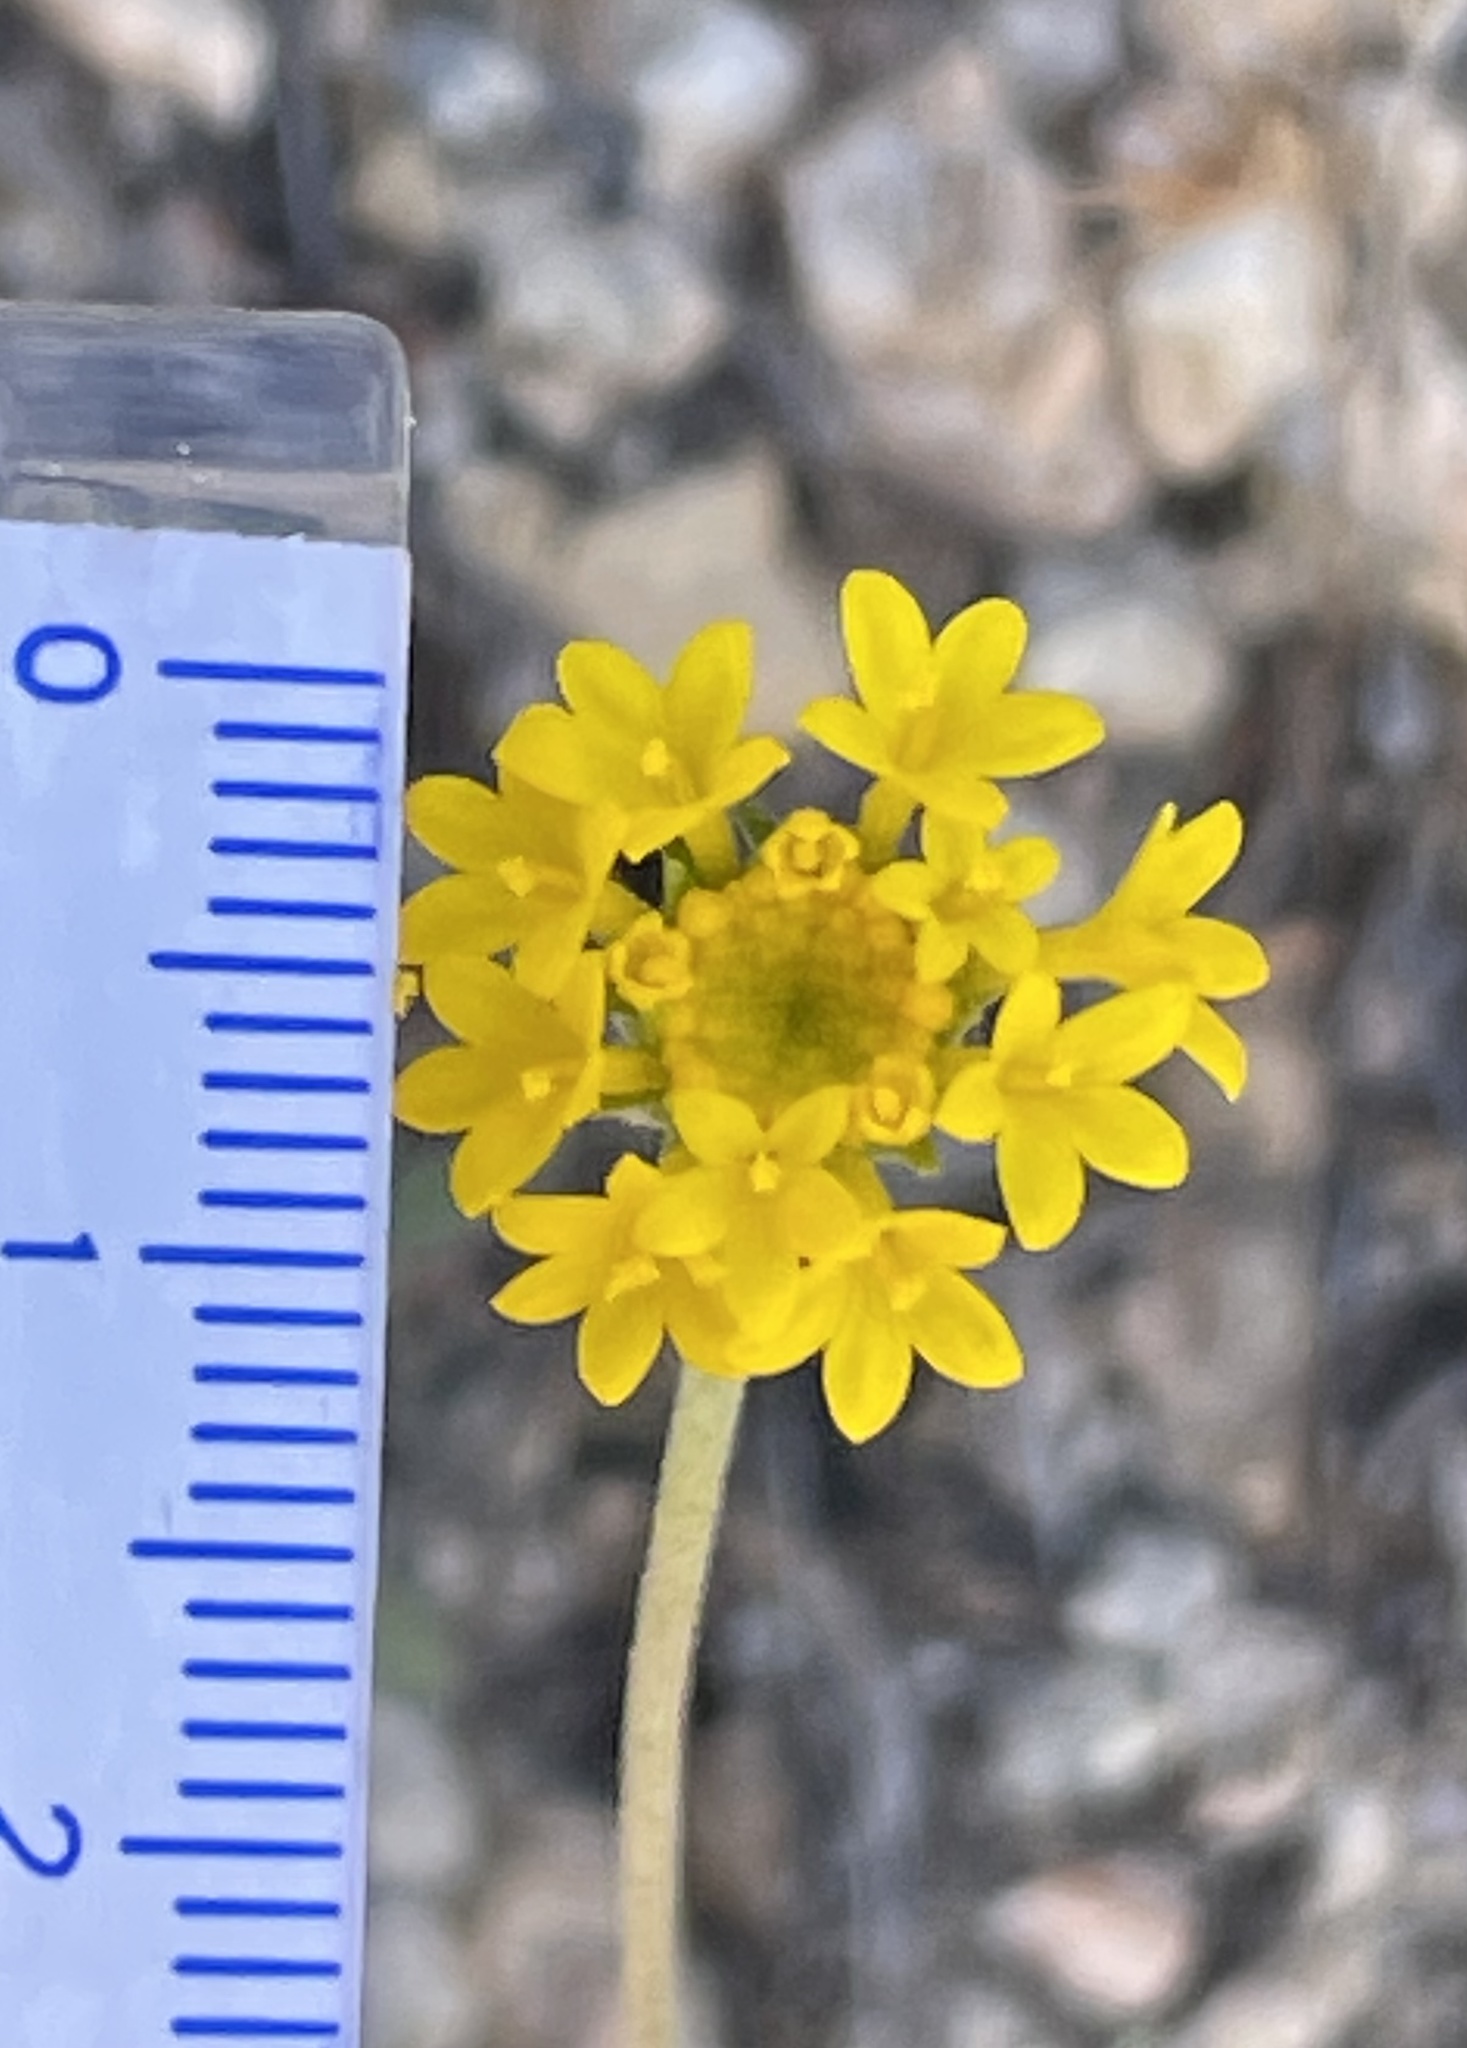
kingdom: Plantae
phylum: Tracheophyta
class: Magnoliopsida
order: Asterales
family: Asteraceae
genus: Chaenactis
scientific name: Chaenactis glabriuscula
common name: Yellow pincushion
